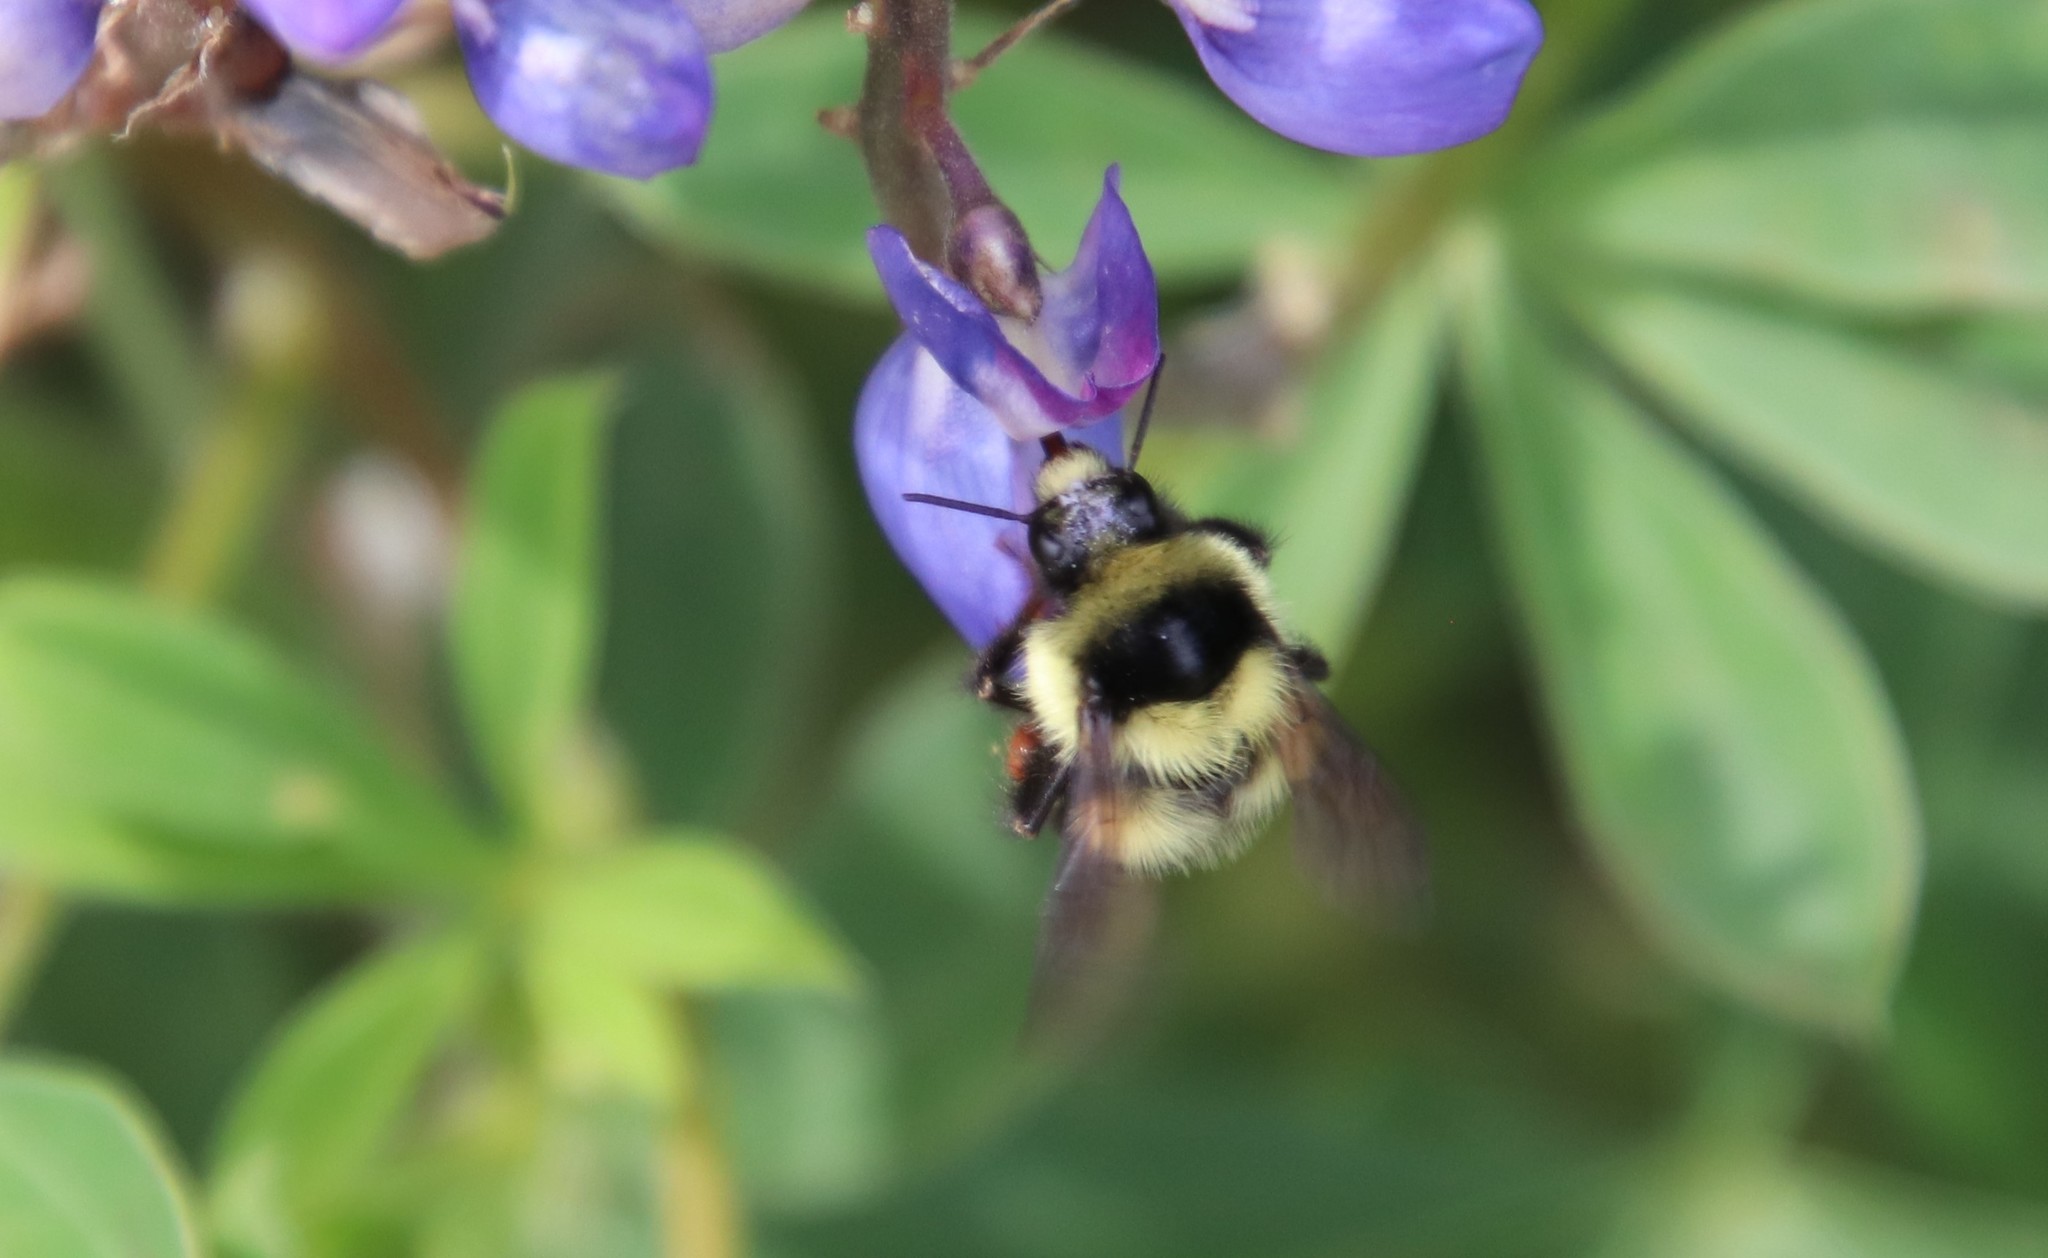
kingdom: Animalia
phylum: Arthropoda
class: Insecta
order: Hymenoptera
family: Apidae
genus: Bombus
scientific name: Bombus melanopygus
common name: Black tail bumble bee
